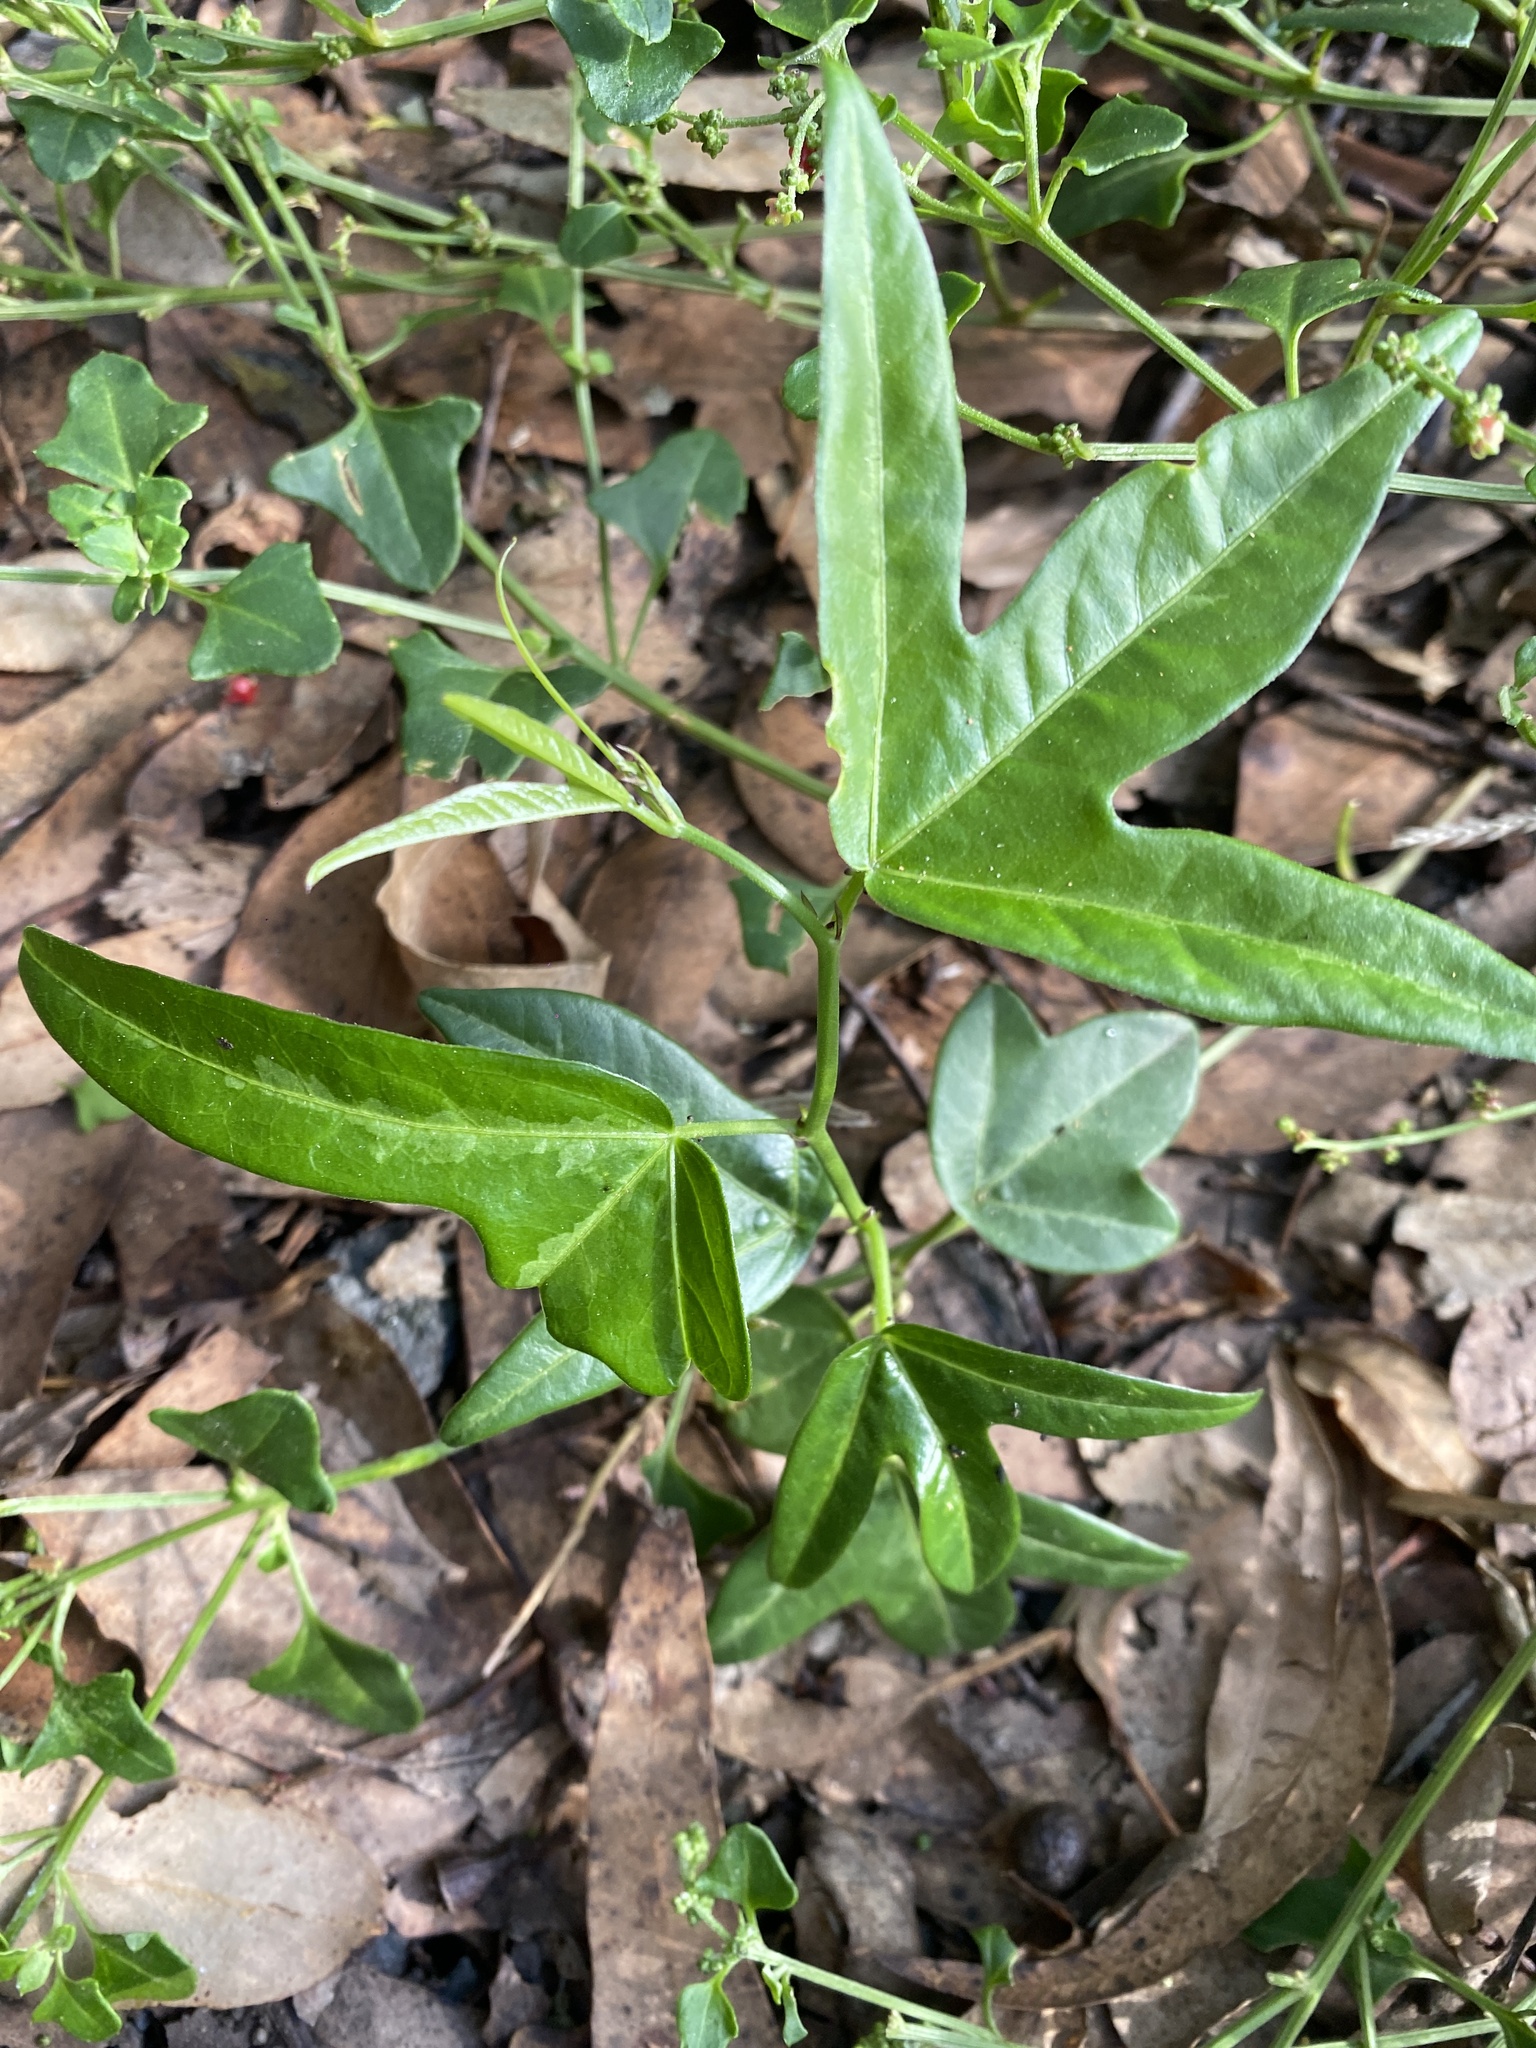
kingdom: Plantae
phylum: Tracheophyta
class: Magnoliopsida
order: Malpighiales
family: Passifloraceae
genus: Passiflora
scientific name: Passiflora pallida
